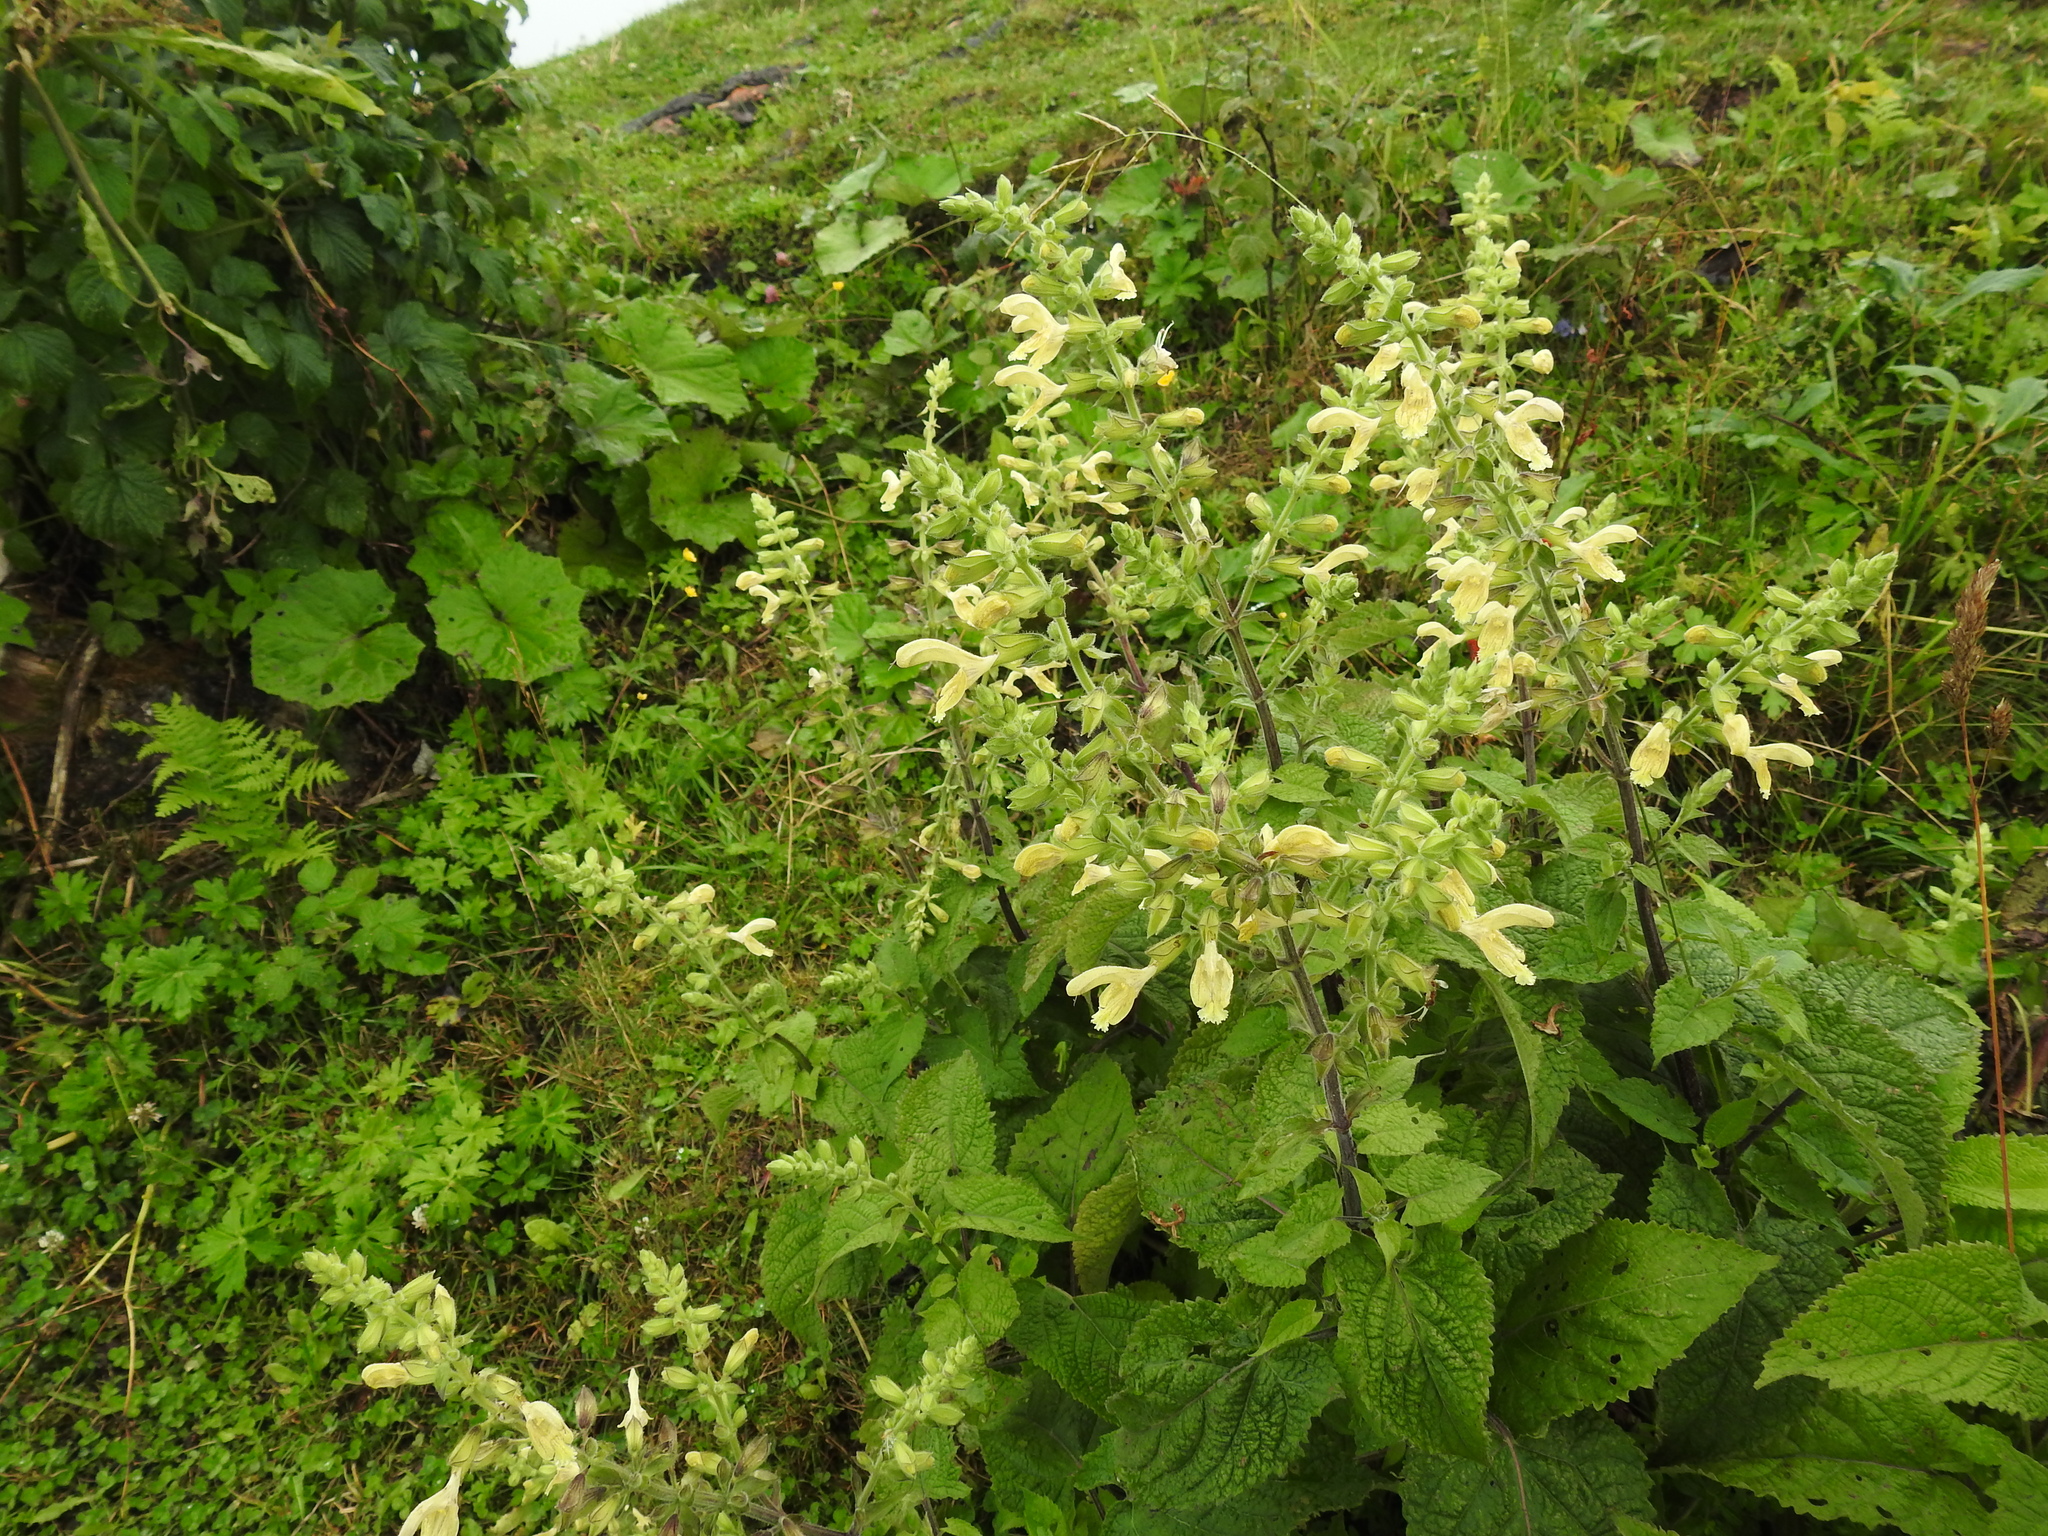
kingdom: Plantae
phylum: Tracheophyta
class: Magnoliopsida
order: Lamiales
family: Lamiaceae
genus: Salvia
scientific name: Salvia glutinosa
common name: Sticky clary
